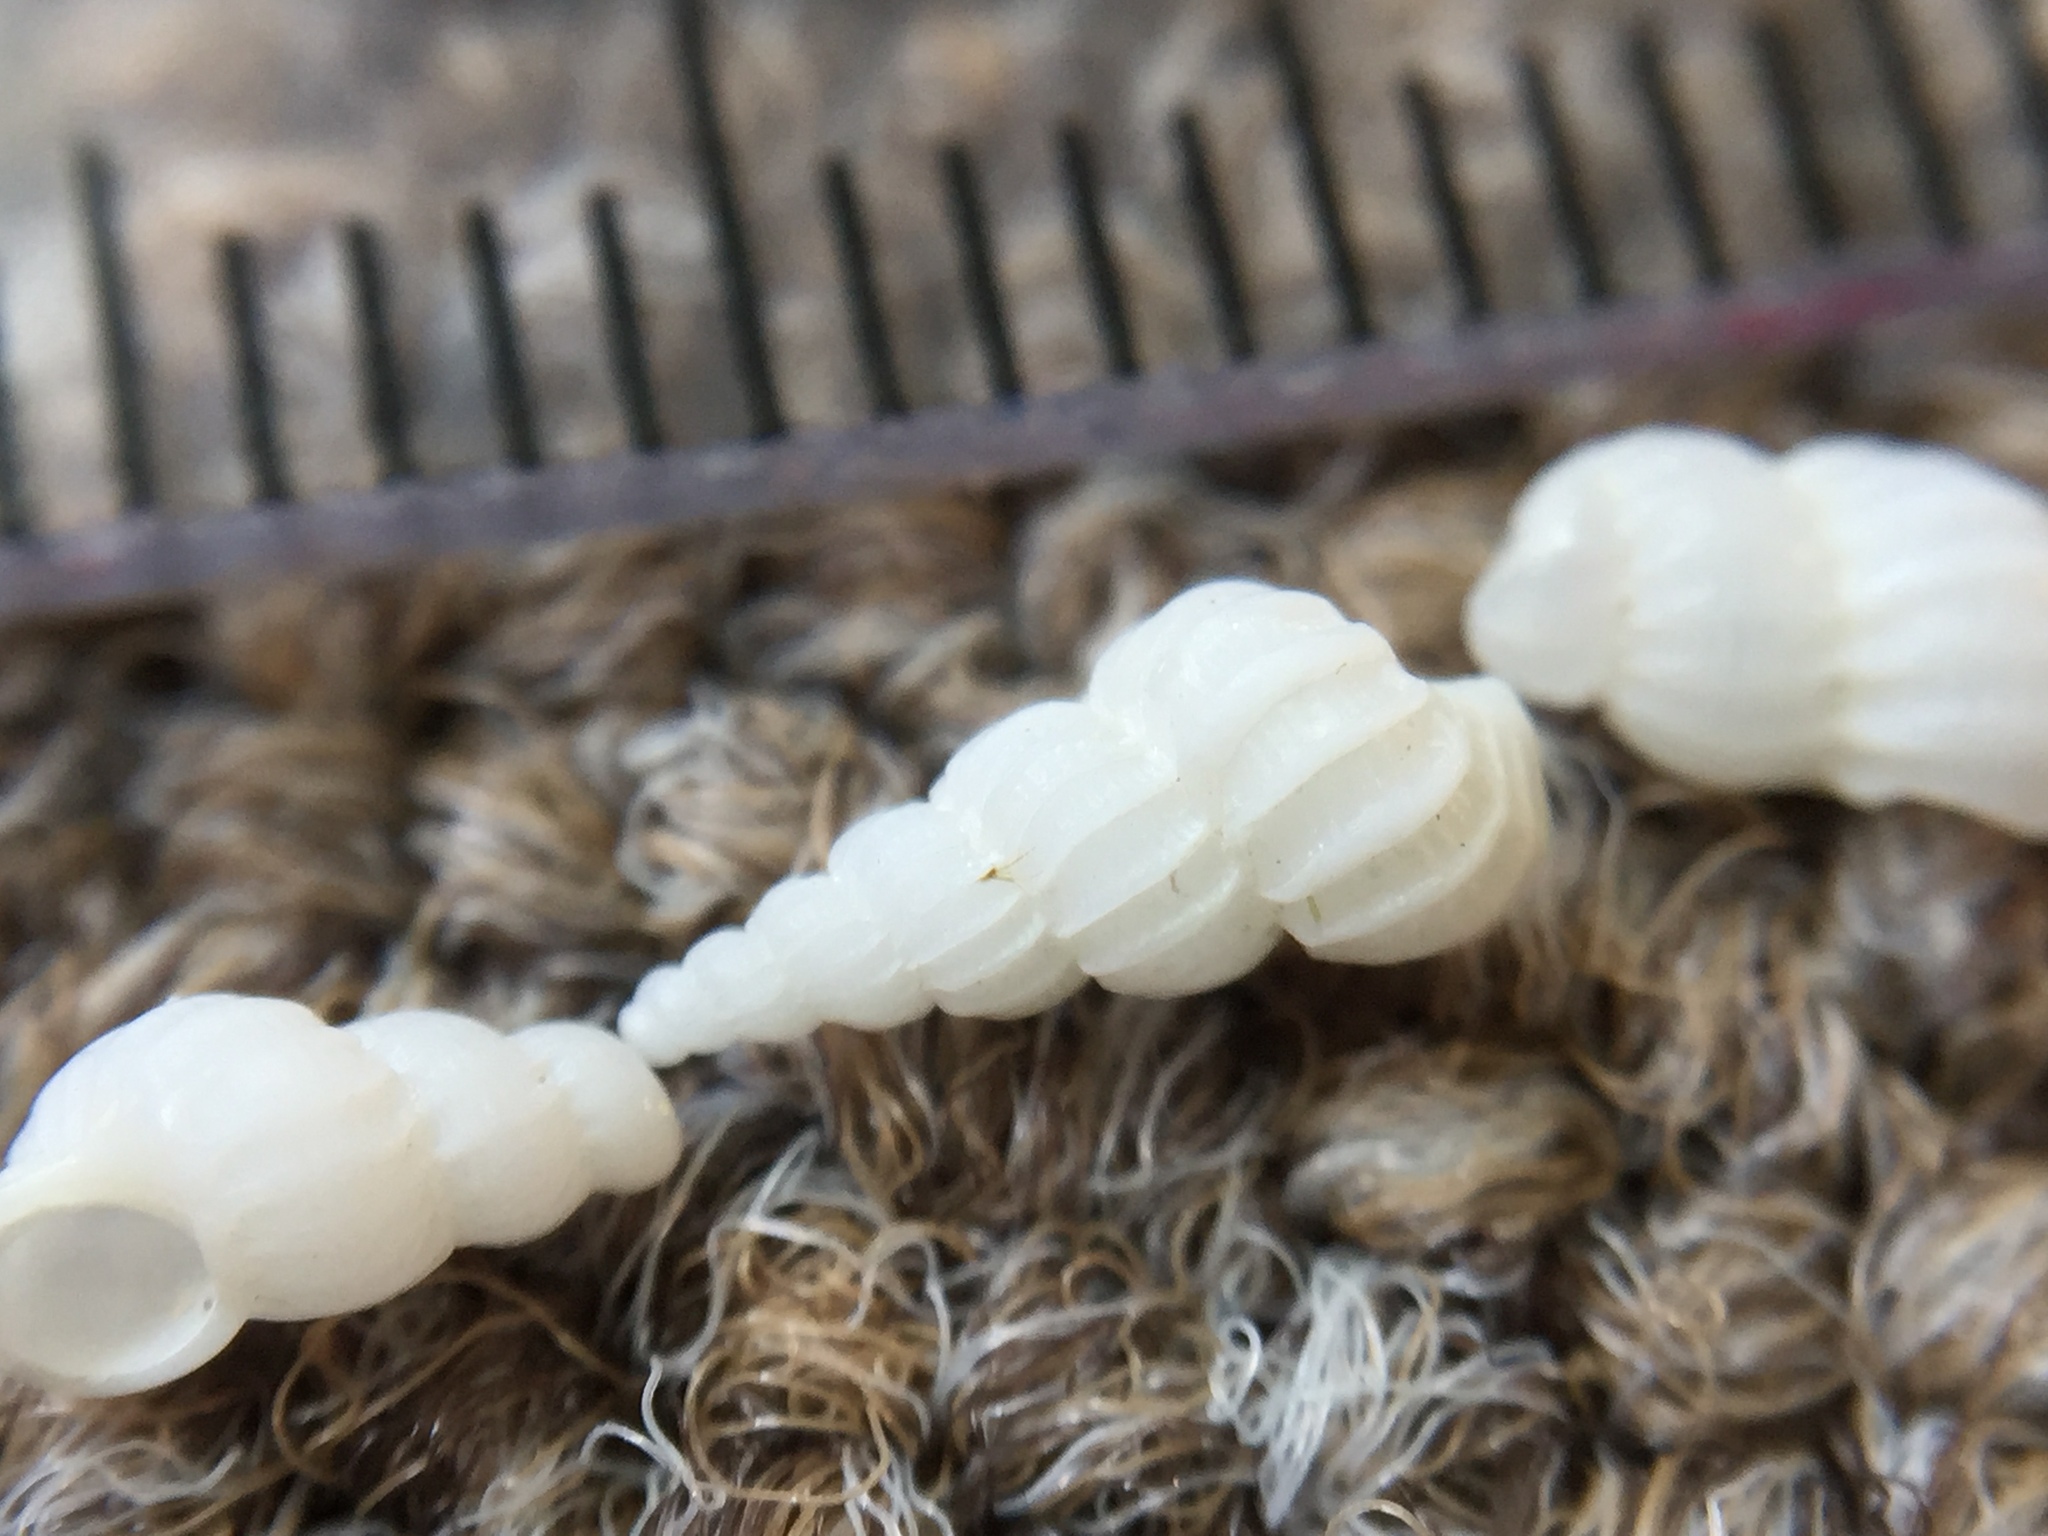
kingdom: Animalia
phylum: Mollusca
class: Gastropoda
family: Epitoniidae
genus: Cirsotrema
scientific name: Cirsotrema zelebori
